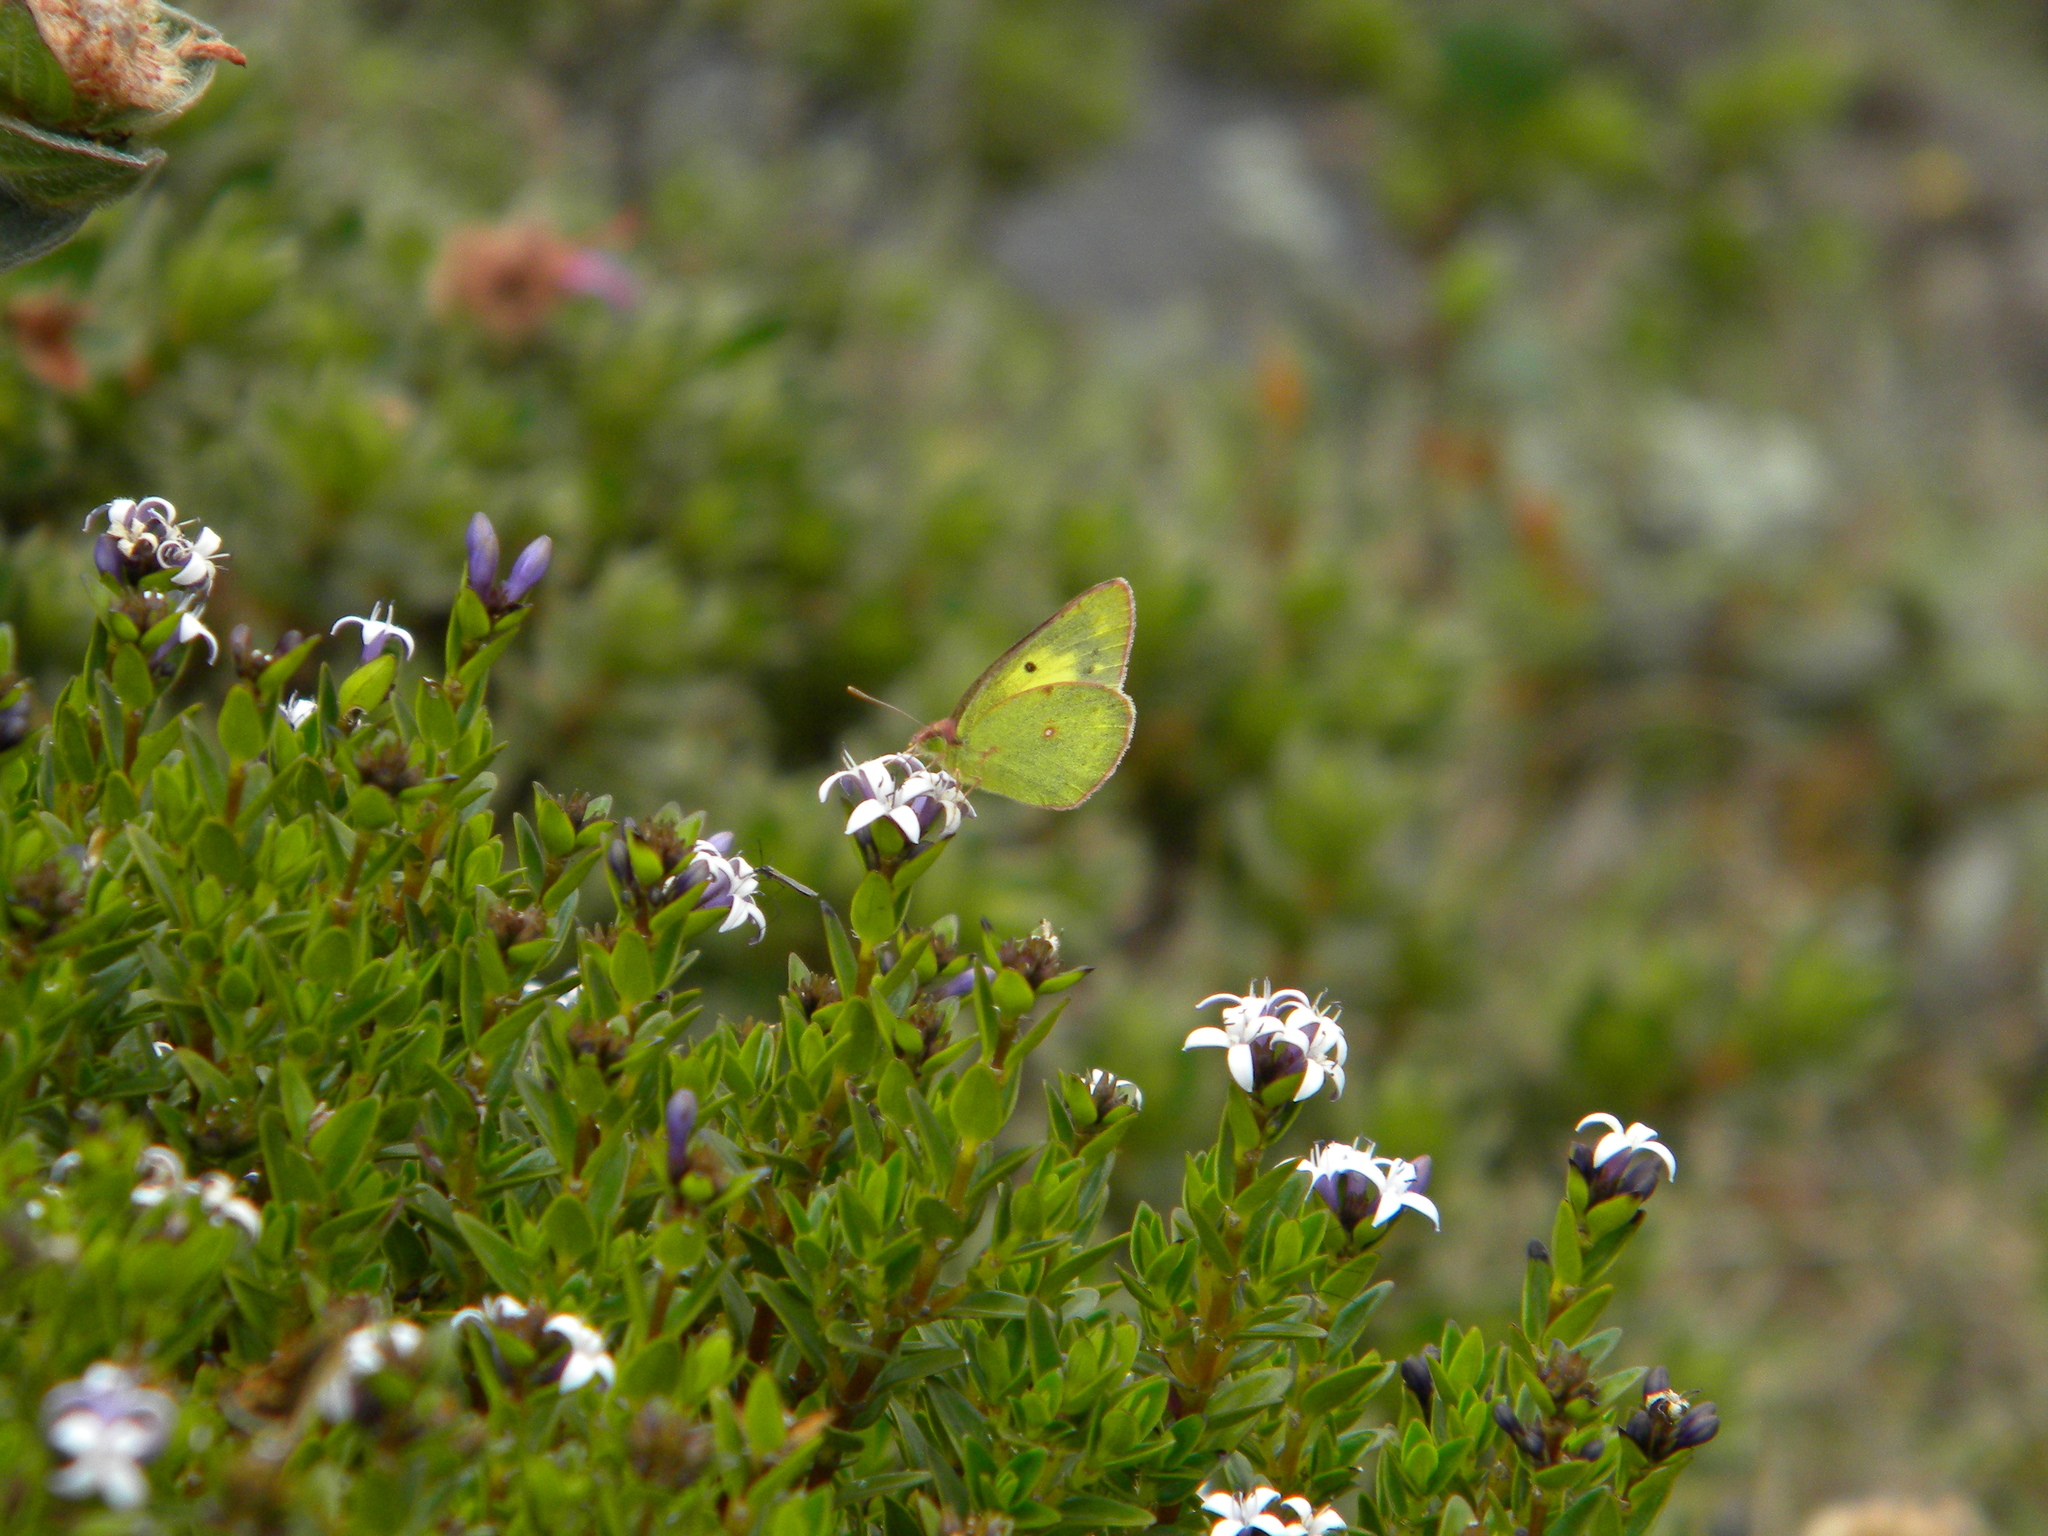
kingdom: Animalia
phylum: Arthropoda
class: Insecta
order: Lepidoptera
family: Pieridae
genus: Colias
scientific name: Colias nilagiriensis
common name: Nilgiri clouded yellow
